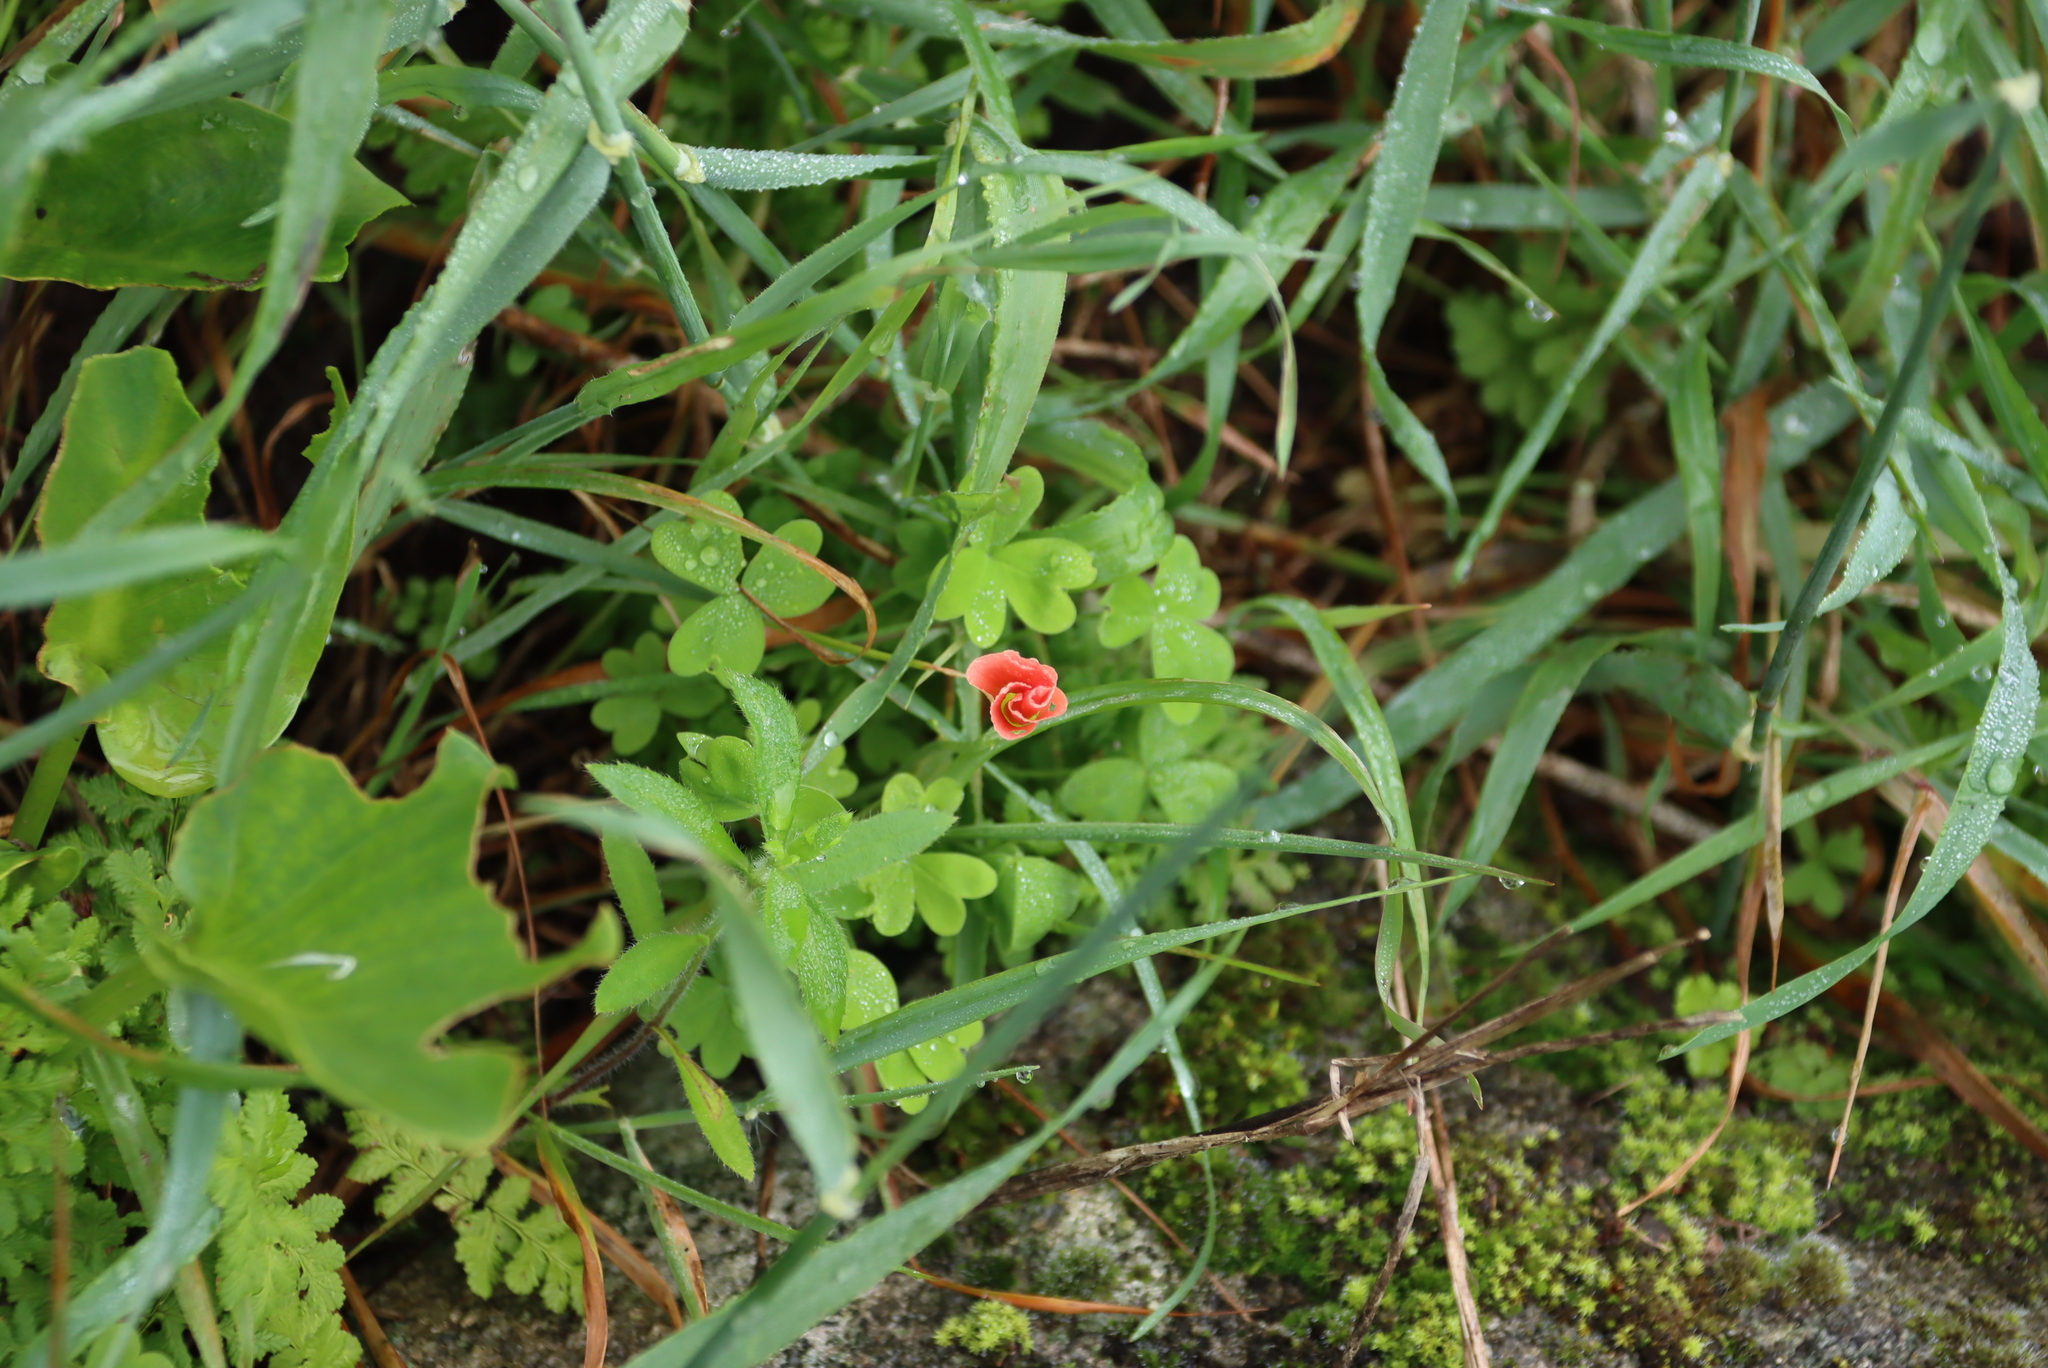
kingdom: Plantae
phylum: Tracheophyta
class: Magnoliopsida
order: Oxalidales
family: Oxalidaceae
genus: Oxalis
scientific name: Oxalis obtusa
